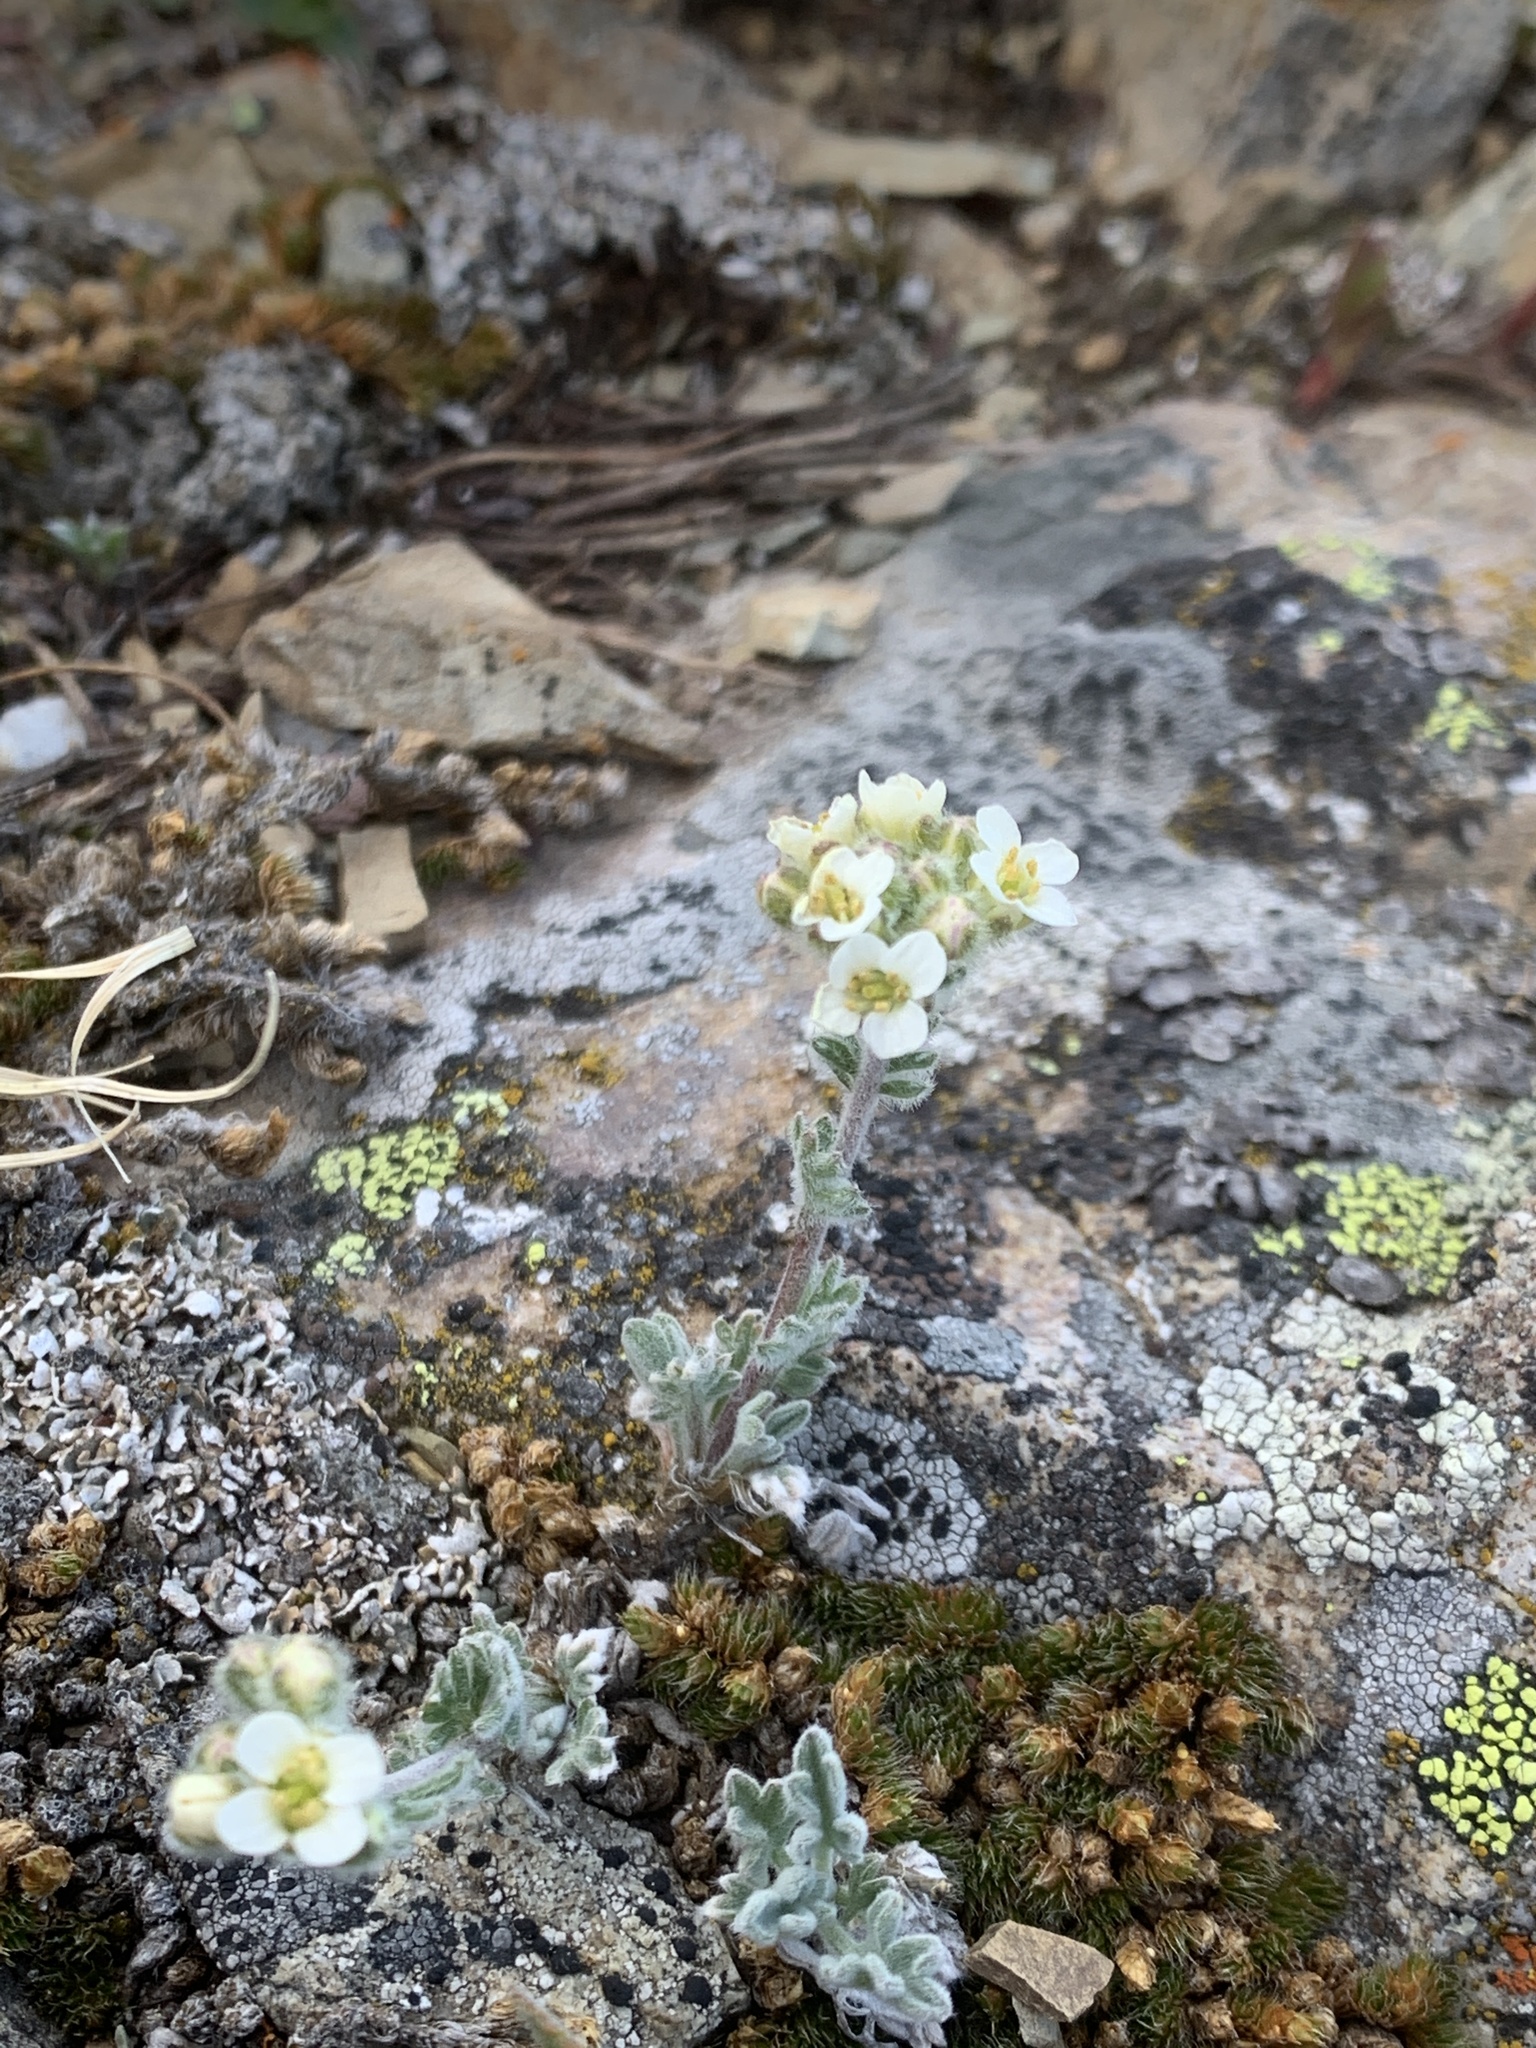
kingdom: Plantae
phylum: Tracheophyta
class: Magnoliopsida
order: Brassicales
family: Brassicaceae
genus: Smelowskia
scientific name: Smelowskia americana
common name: American false candytuft
